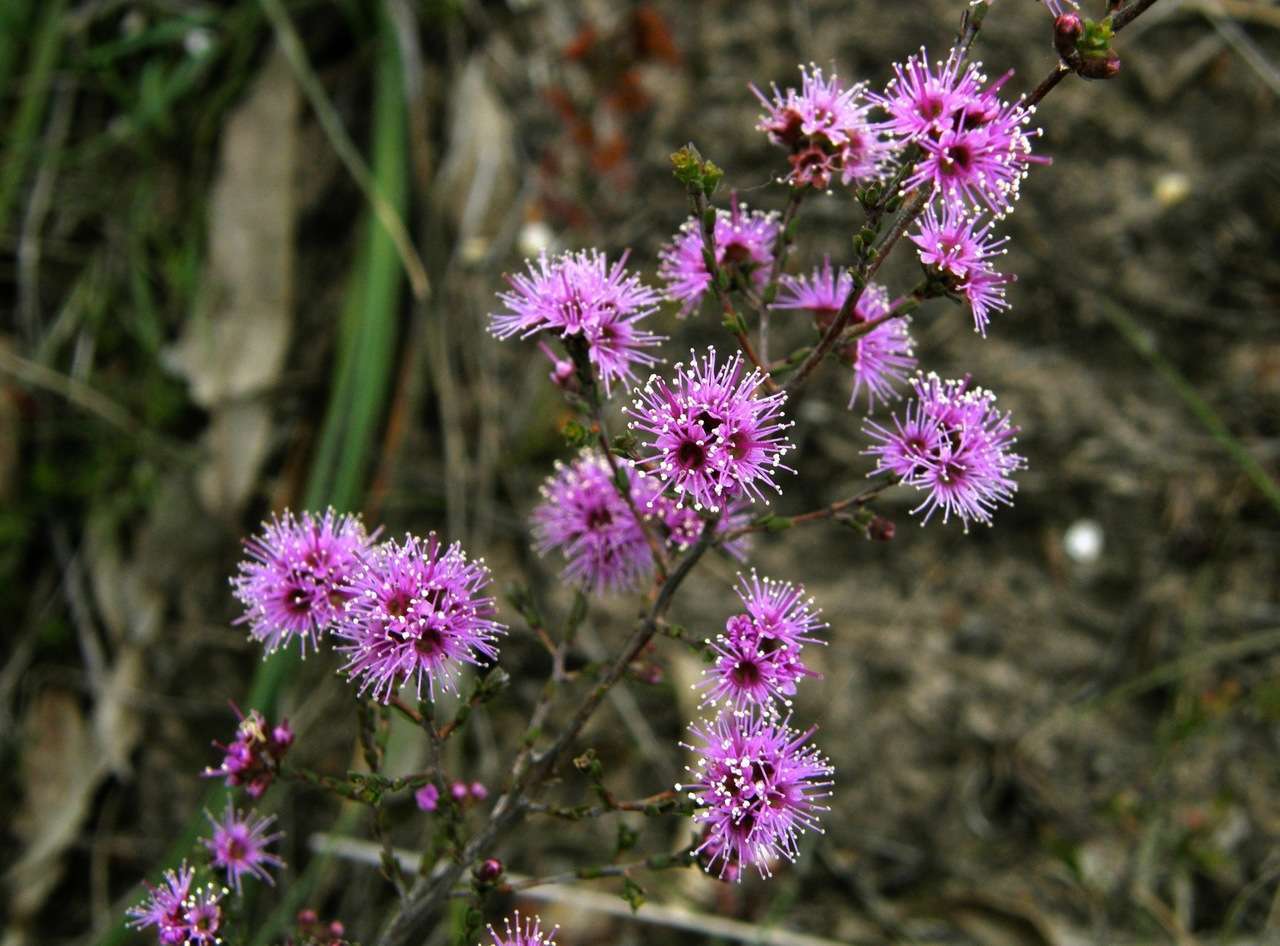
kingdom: Plantae
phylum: Tracheophyta
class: Magnoliopsida
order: Myrtales
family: Myrtaceae
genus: Kunzea
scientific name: Kunzea parvifolia
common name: Violet kunzea
